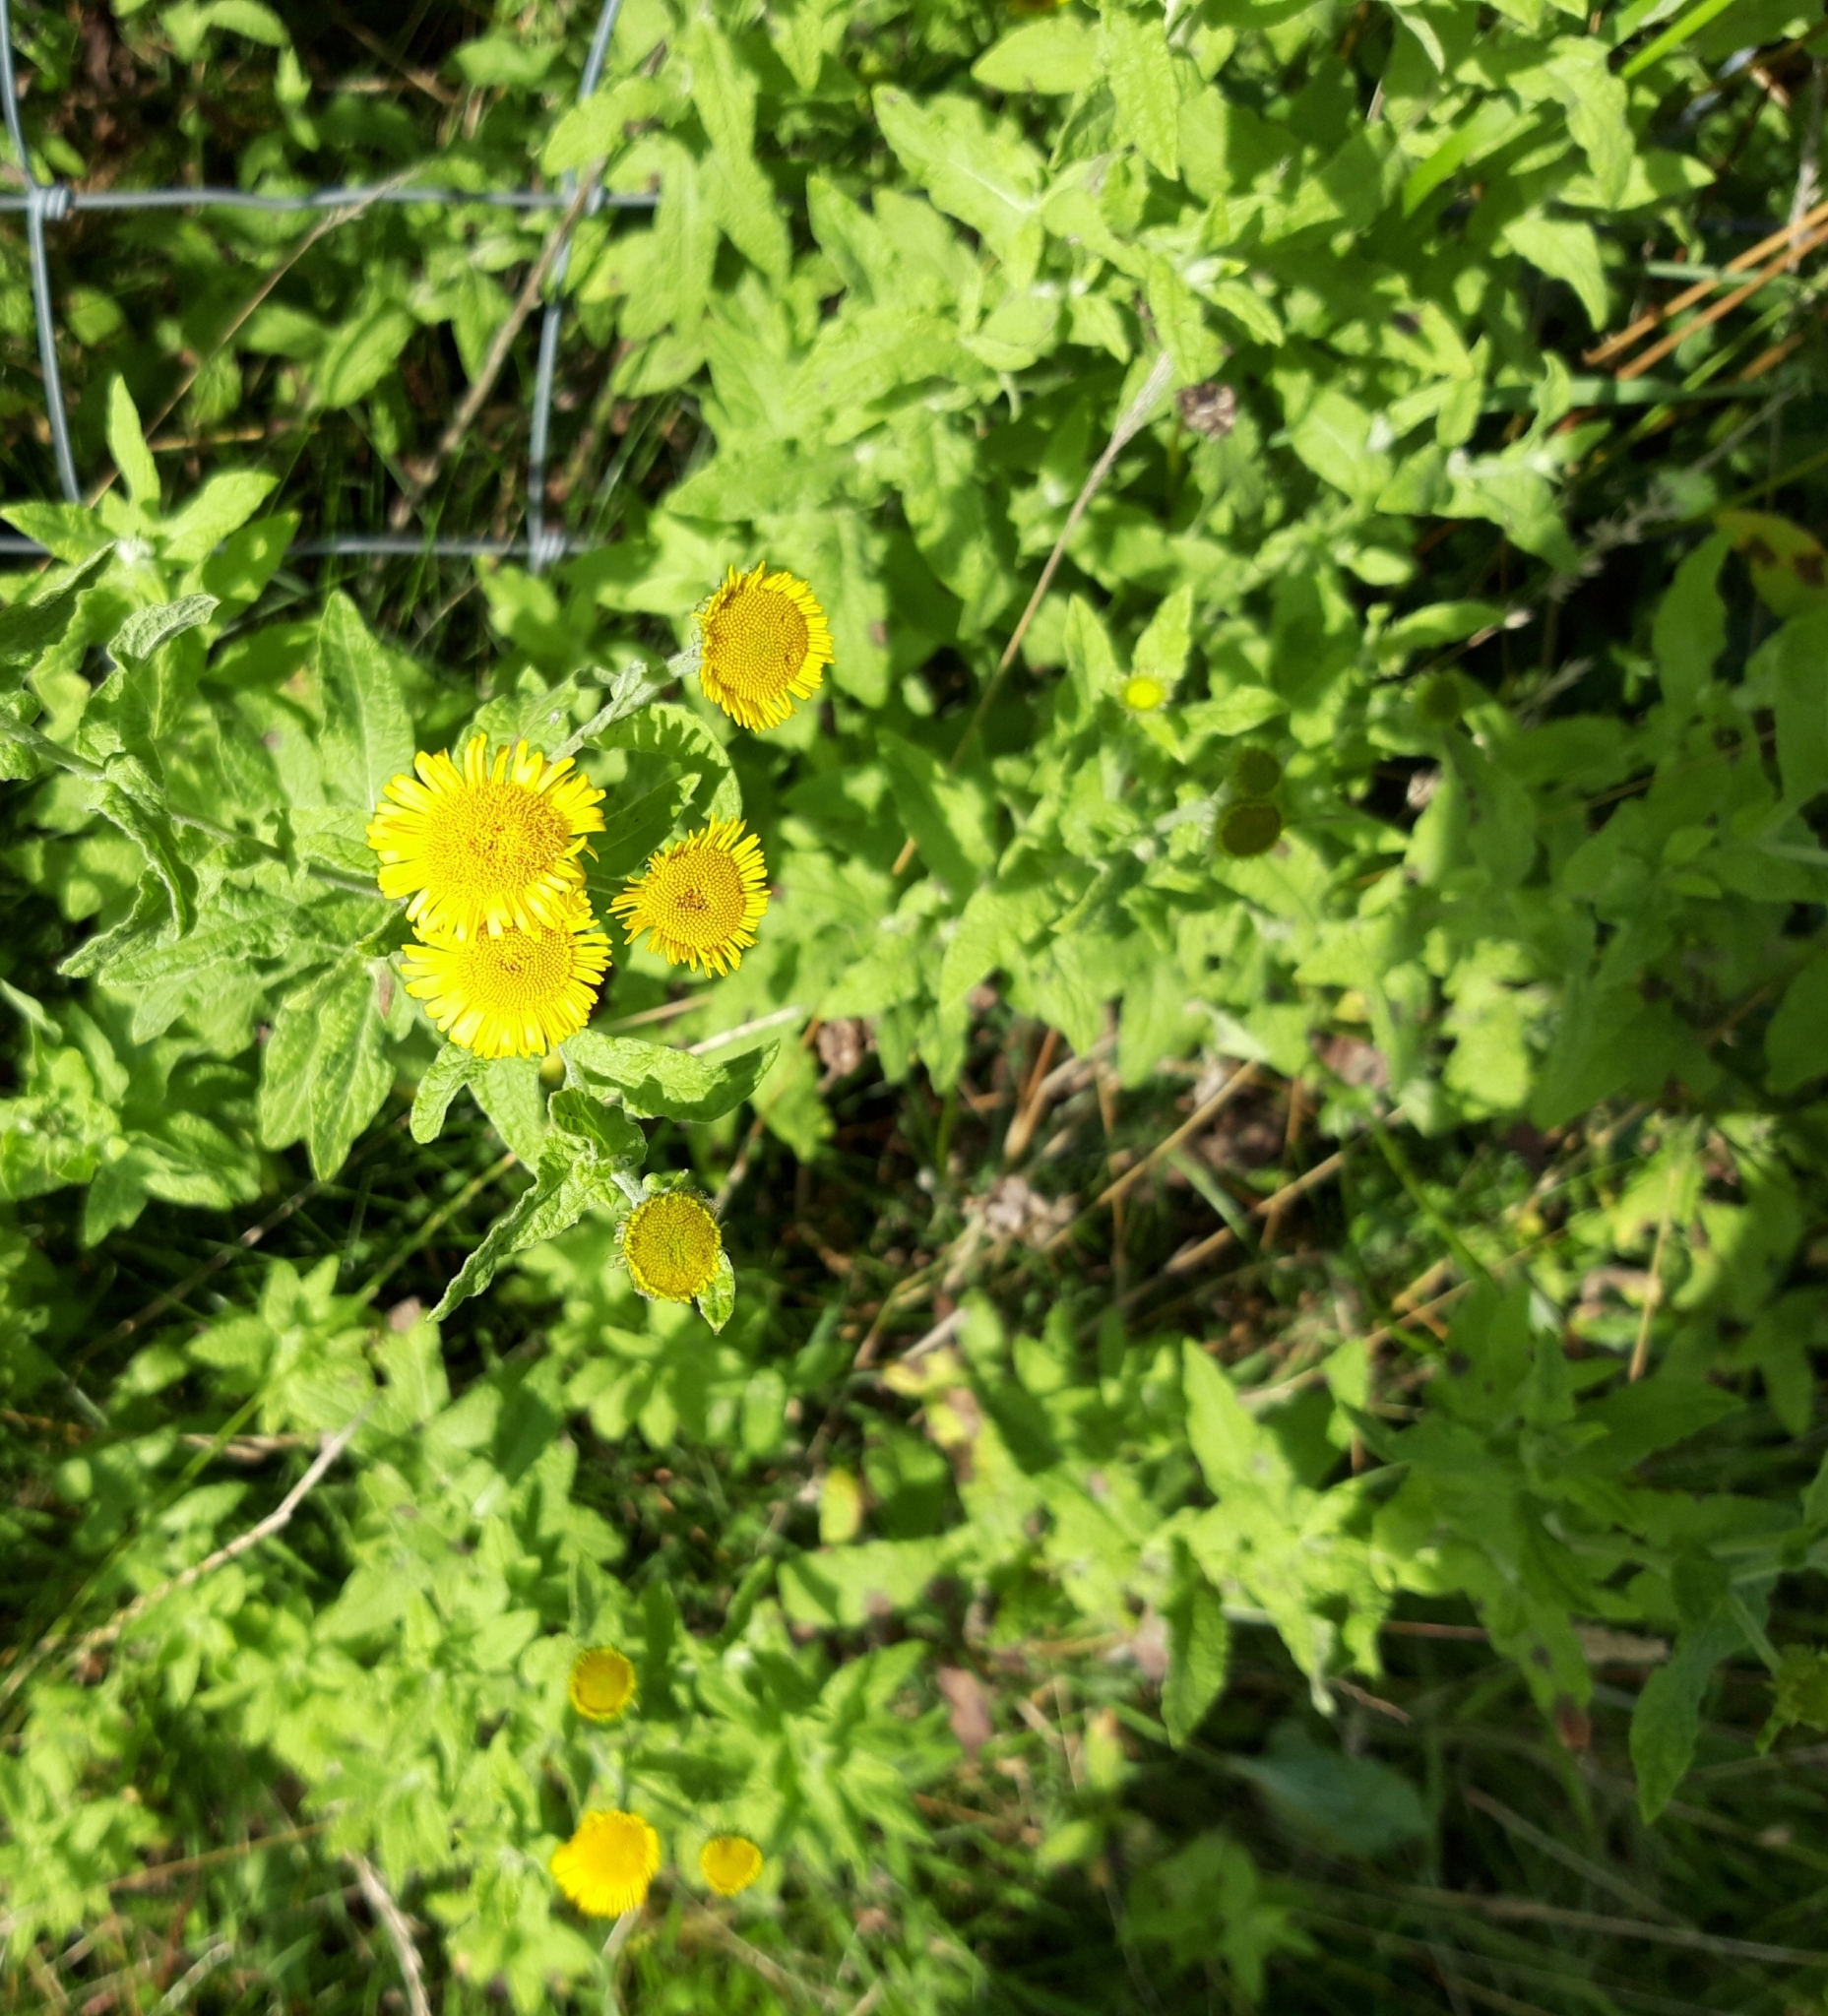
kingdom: Plantae
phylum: Tracheophyta
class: Magnoliopsida
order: Asterales
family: Asteraceae
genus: Pulicaria
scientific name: Pulicaria dysenterica
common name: Common fleabane
